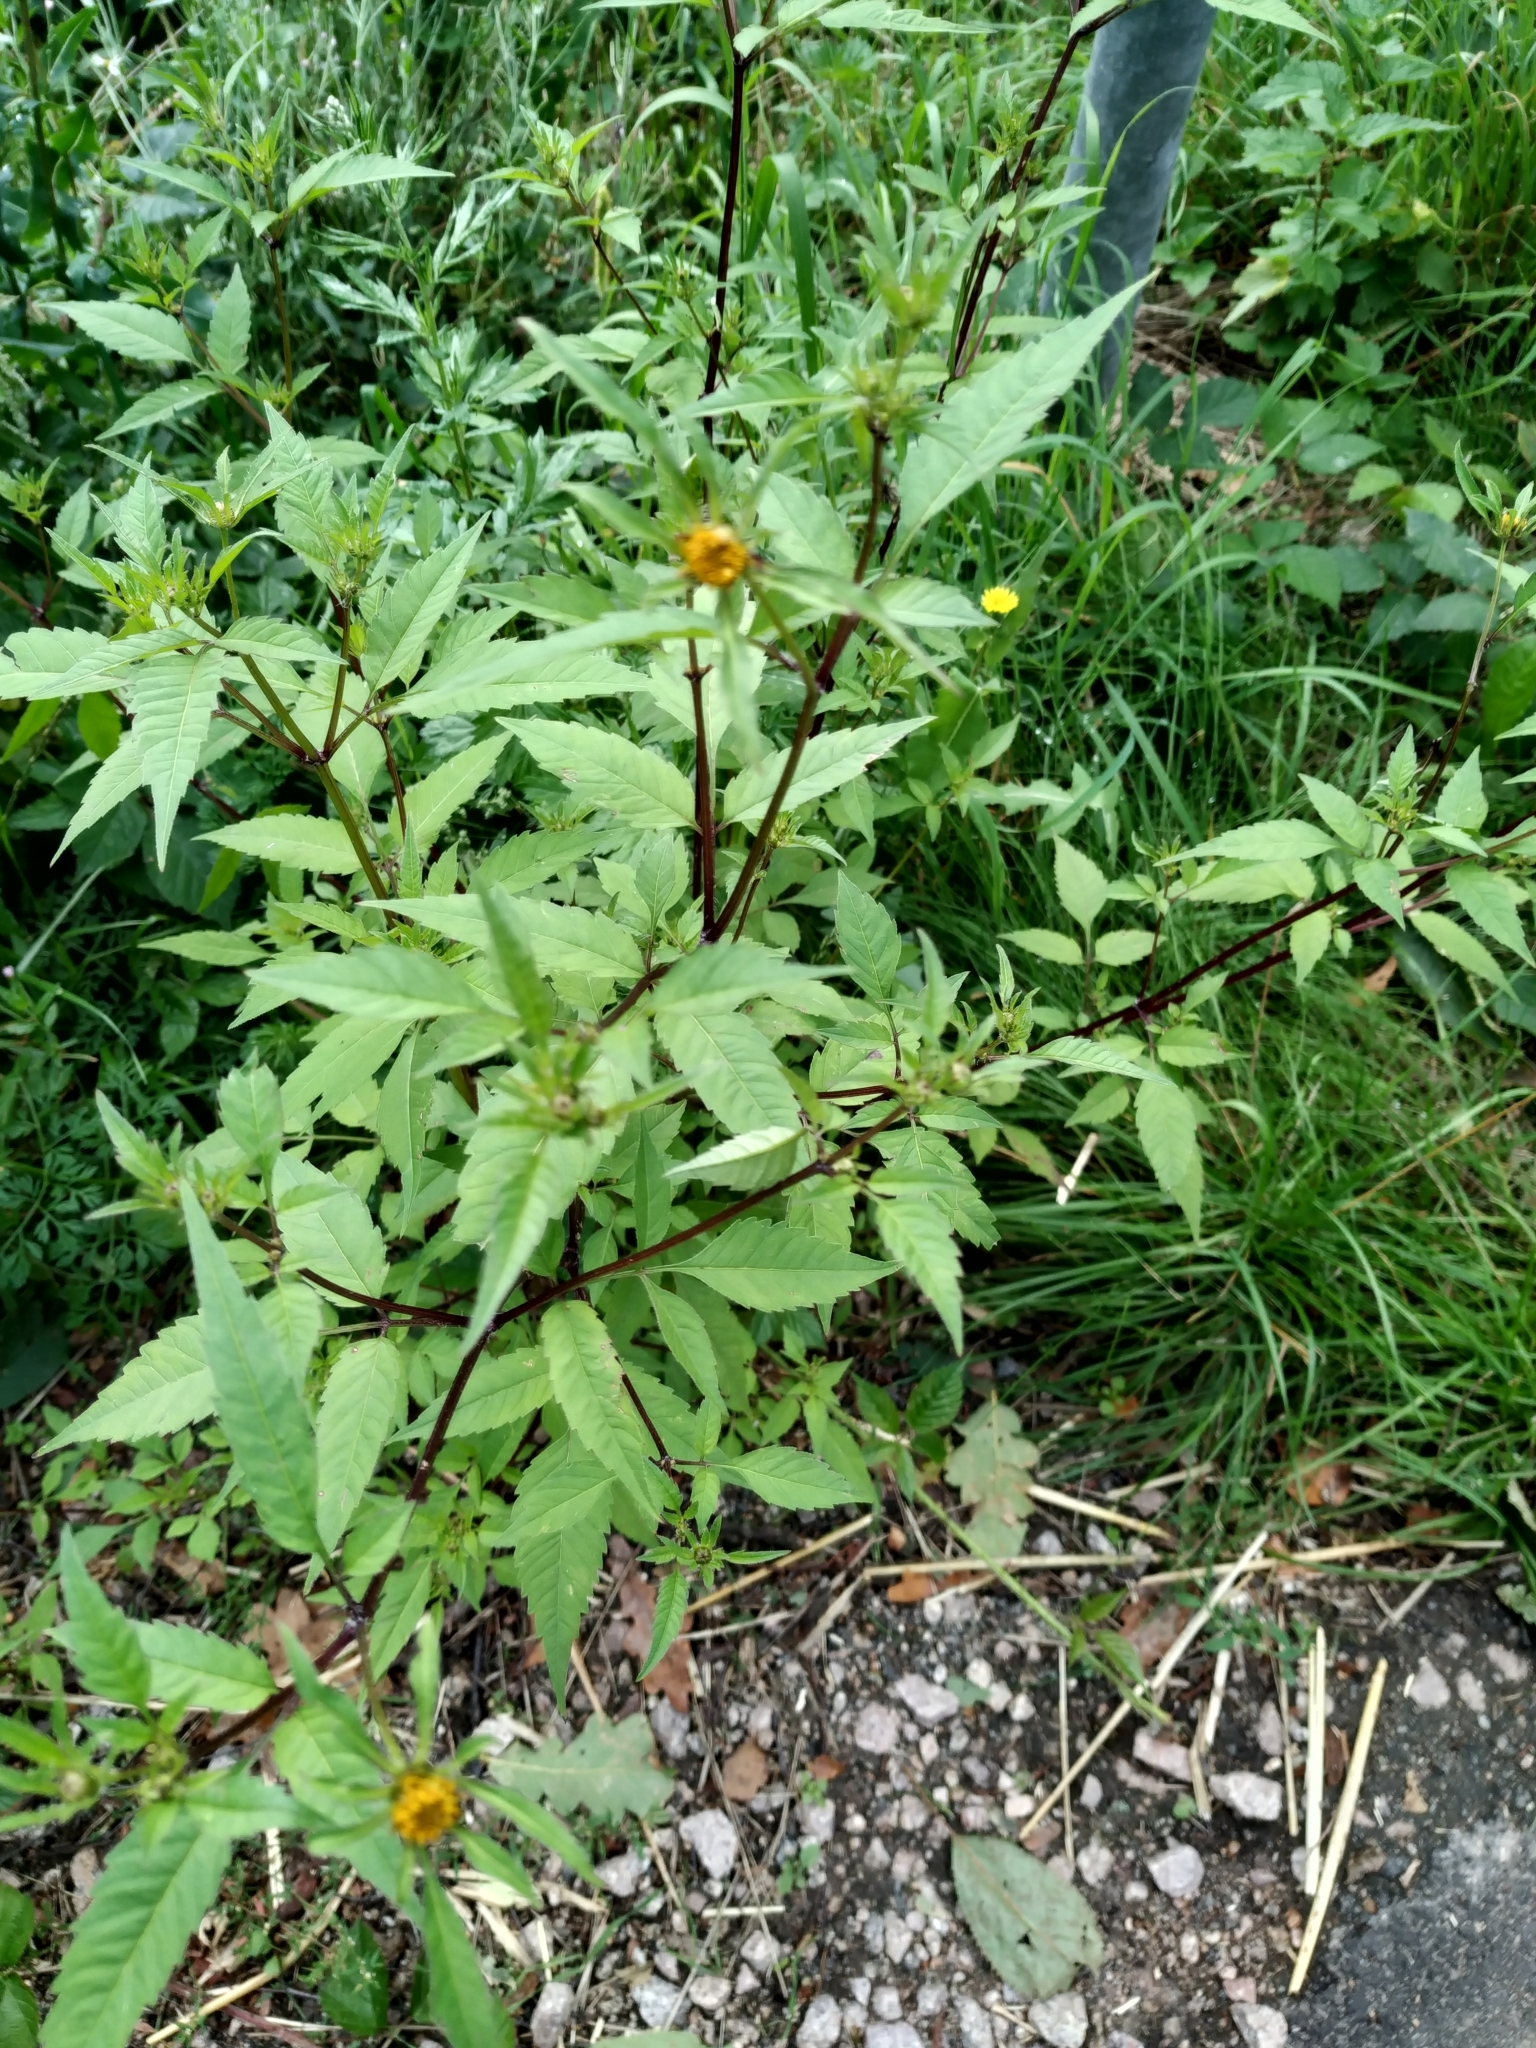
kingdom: Plantae
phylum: Tracheophyta
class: Magnoliopsida
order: Asterales
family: Asteraceae
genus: Bidens
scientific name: Bidens frondosa
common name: Beggarticks
